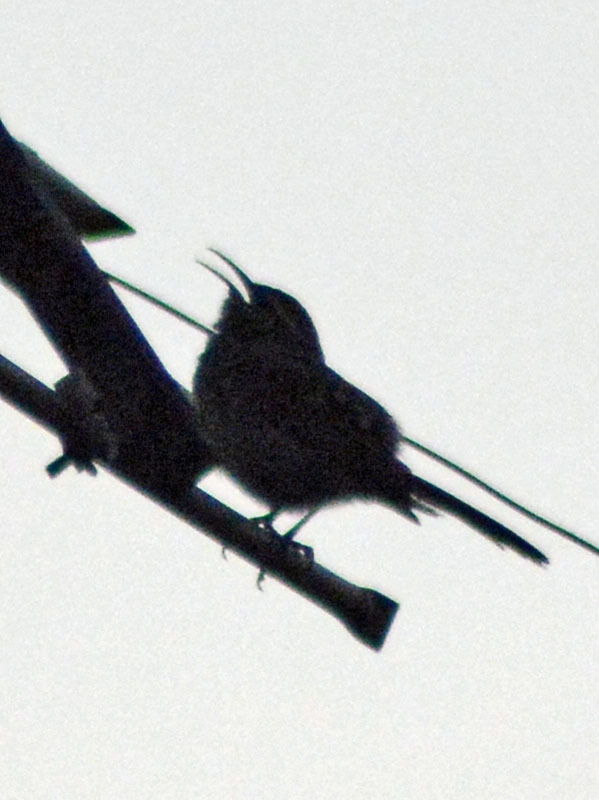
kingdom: Animalia
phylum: Chordata
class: Aves
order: Passeriformes
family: Troglodytidae
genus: Thryomanes
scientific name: Thryomanes bewickii
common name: Bewick's wren
